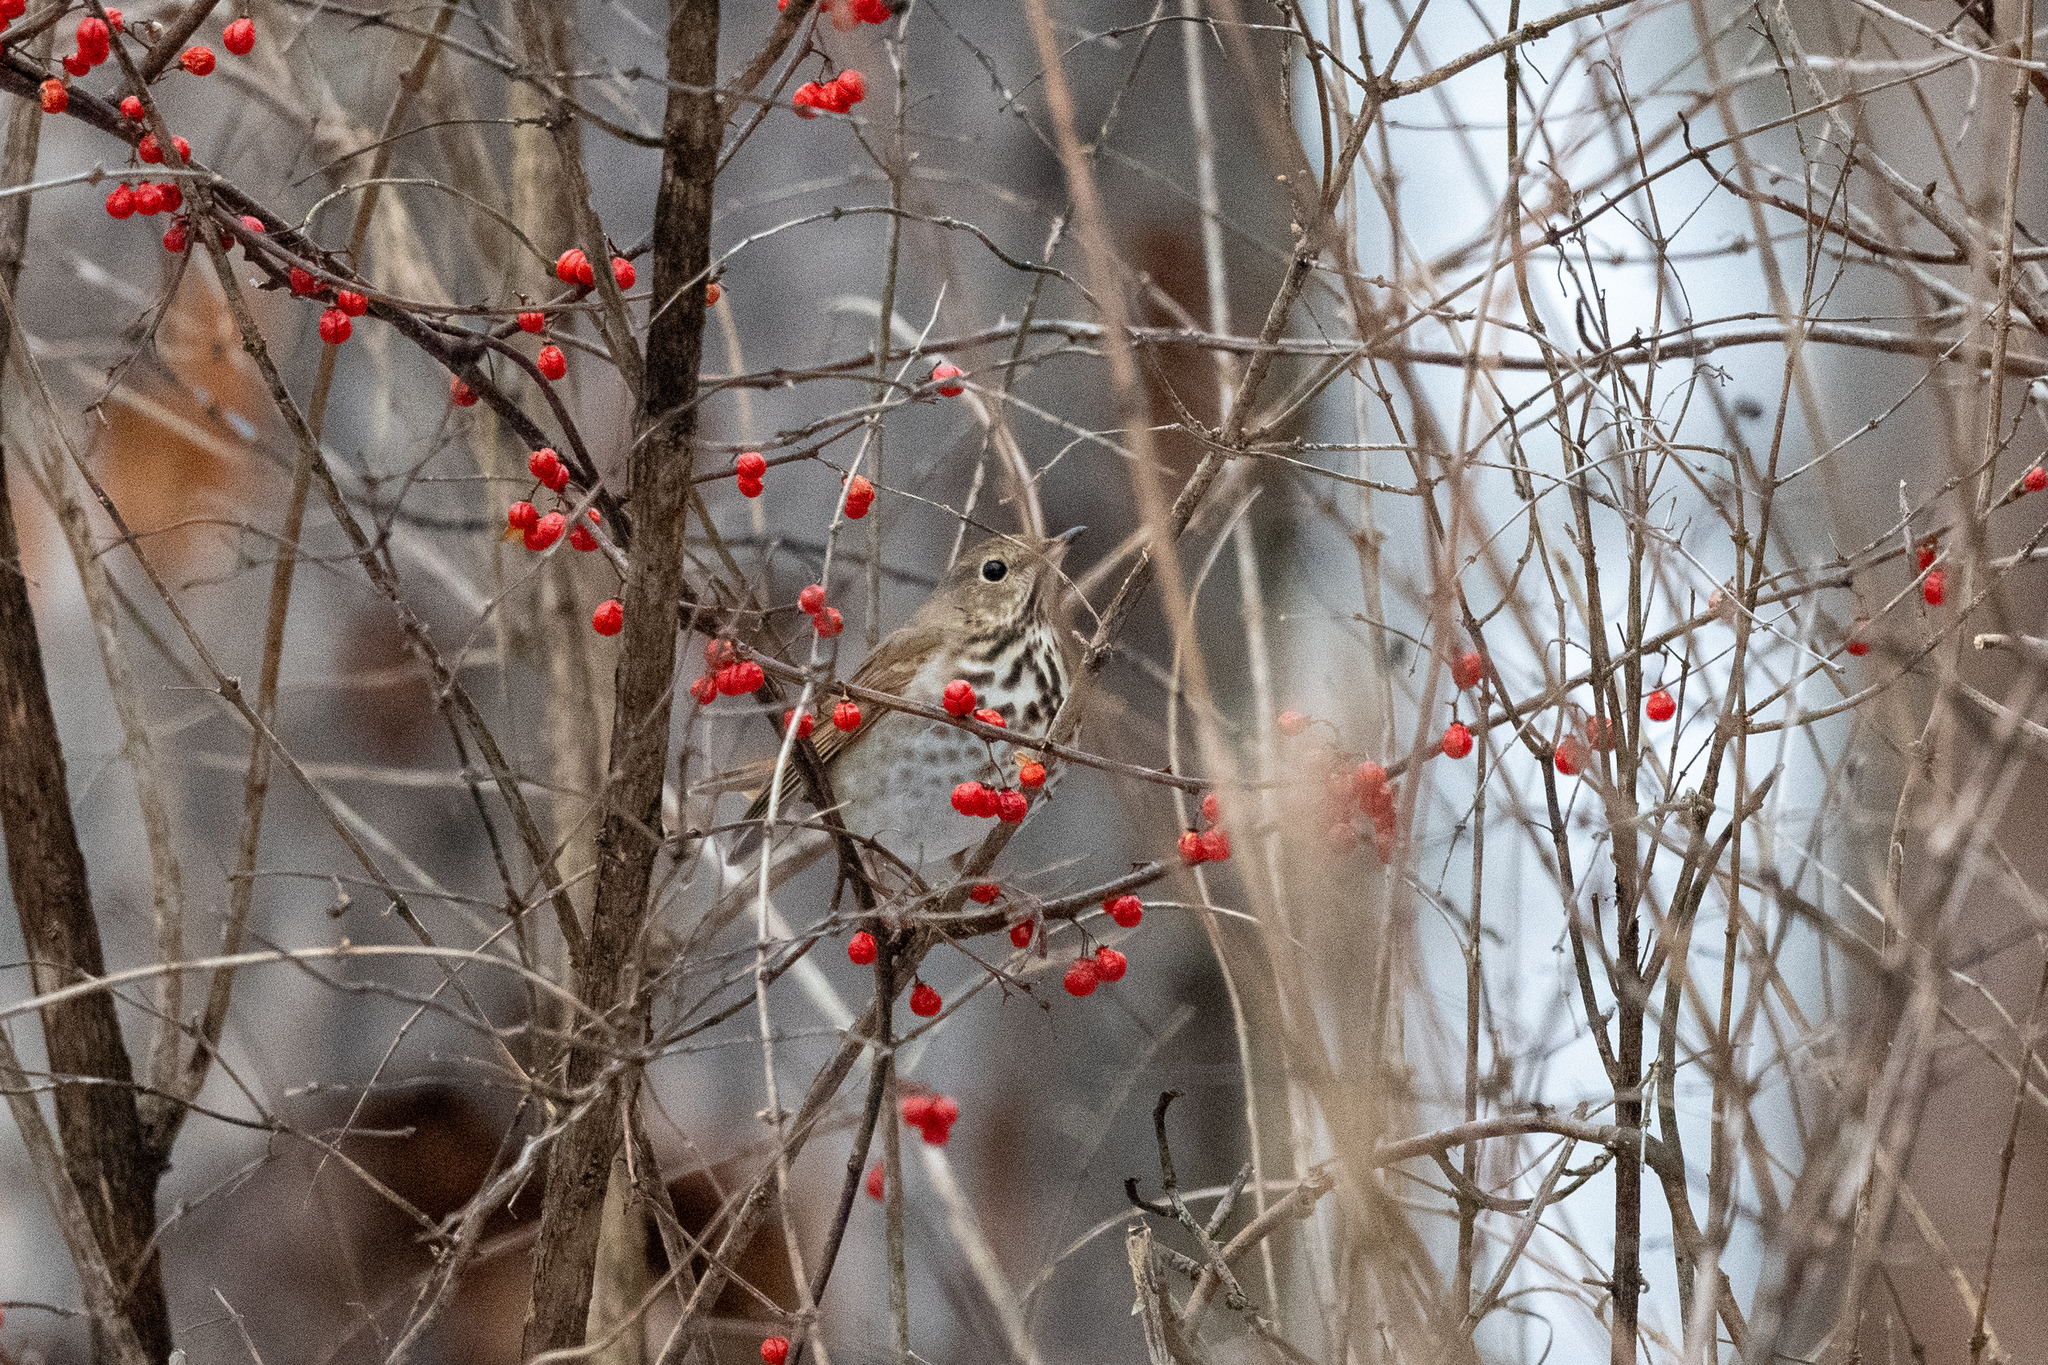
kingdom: Animalia
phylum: Chordata
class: Aves
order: Passeriformes
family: Turdidae
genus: Catharus
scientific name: Catharus guttatus
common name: Hermit thrush
